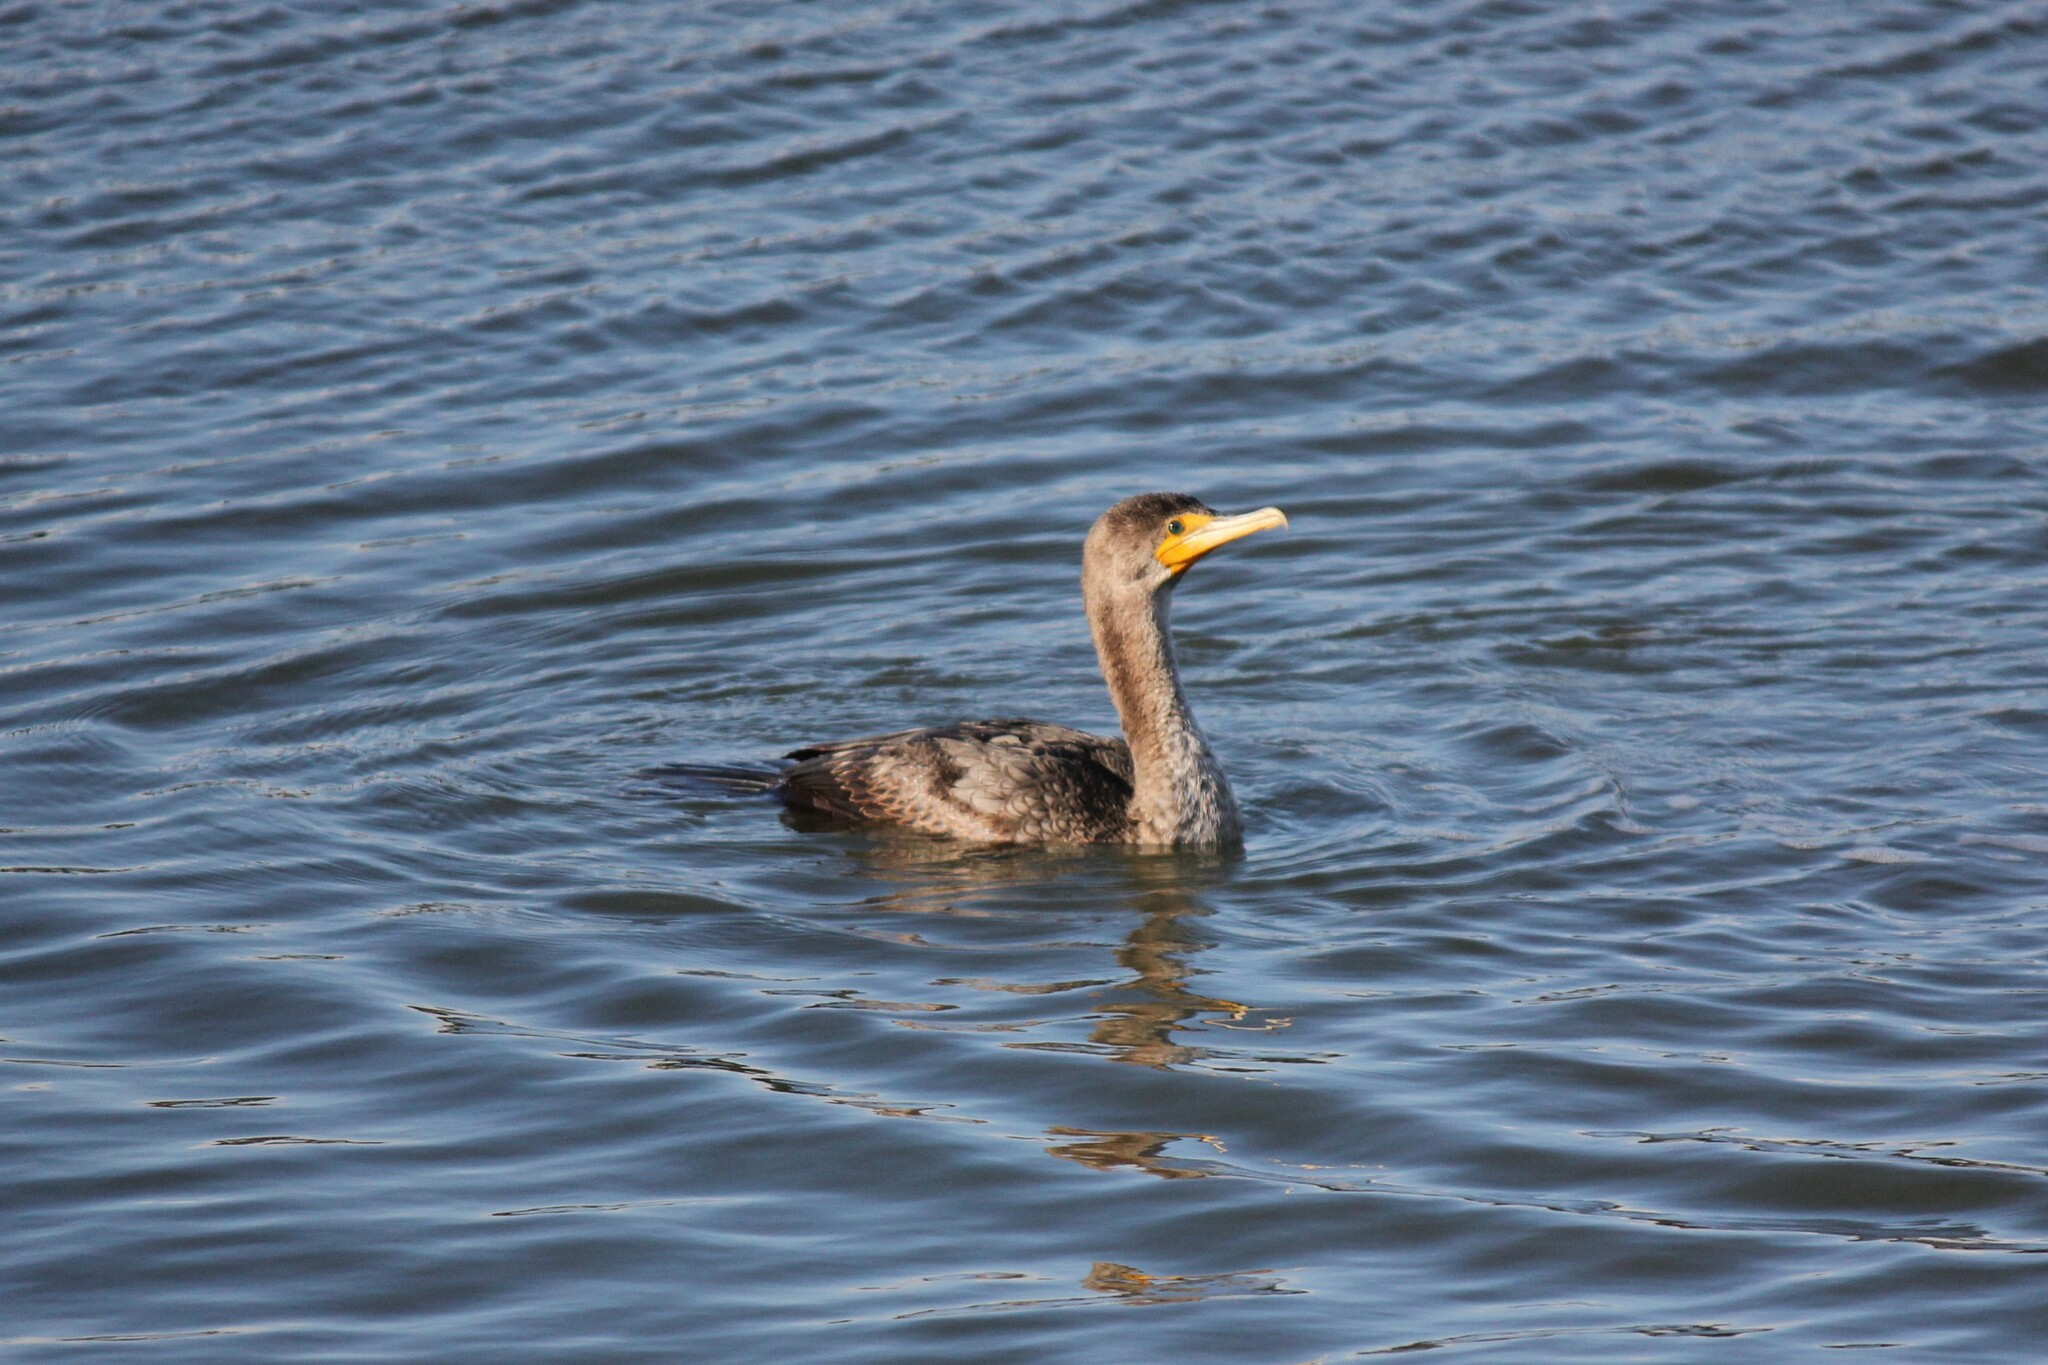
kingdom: Animalia
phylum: Chordata
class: Aves
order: Suliformes
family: Phalacrocoracidae
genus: Phalacrocorax
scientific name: Phalacrocorax auritus
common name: Double-crested cormorant
